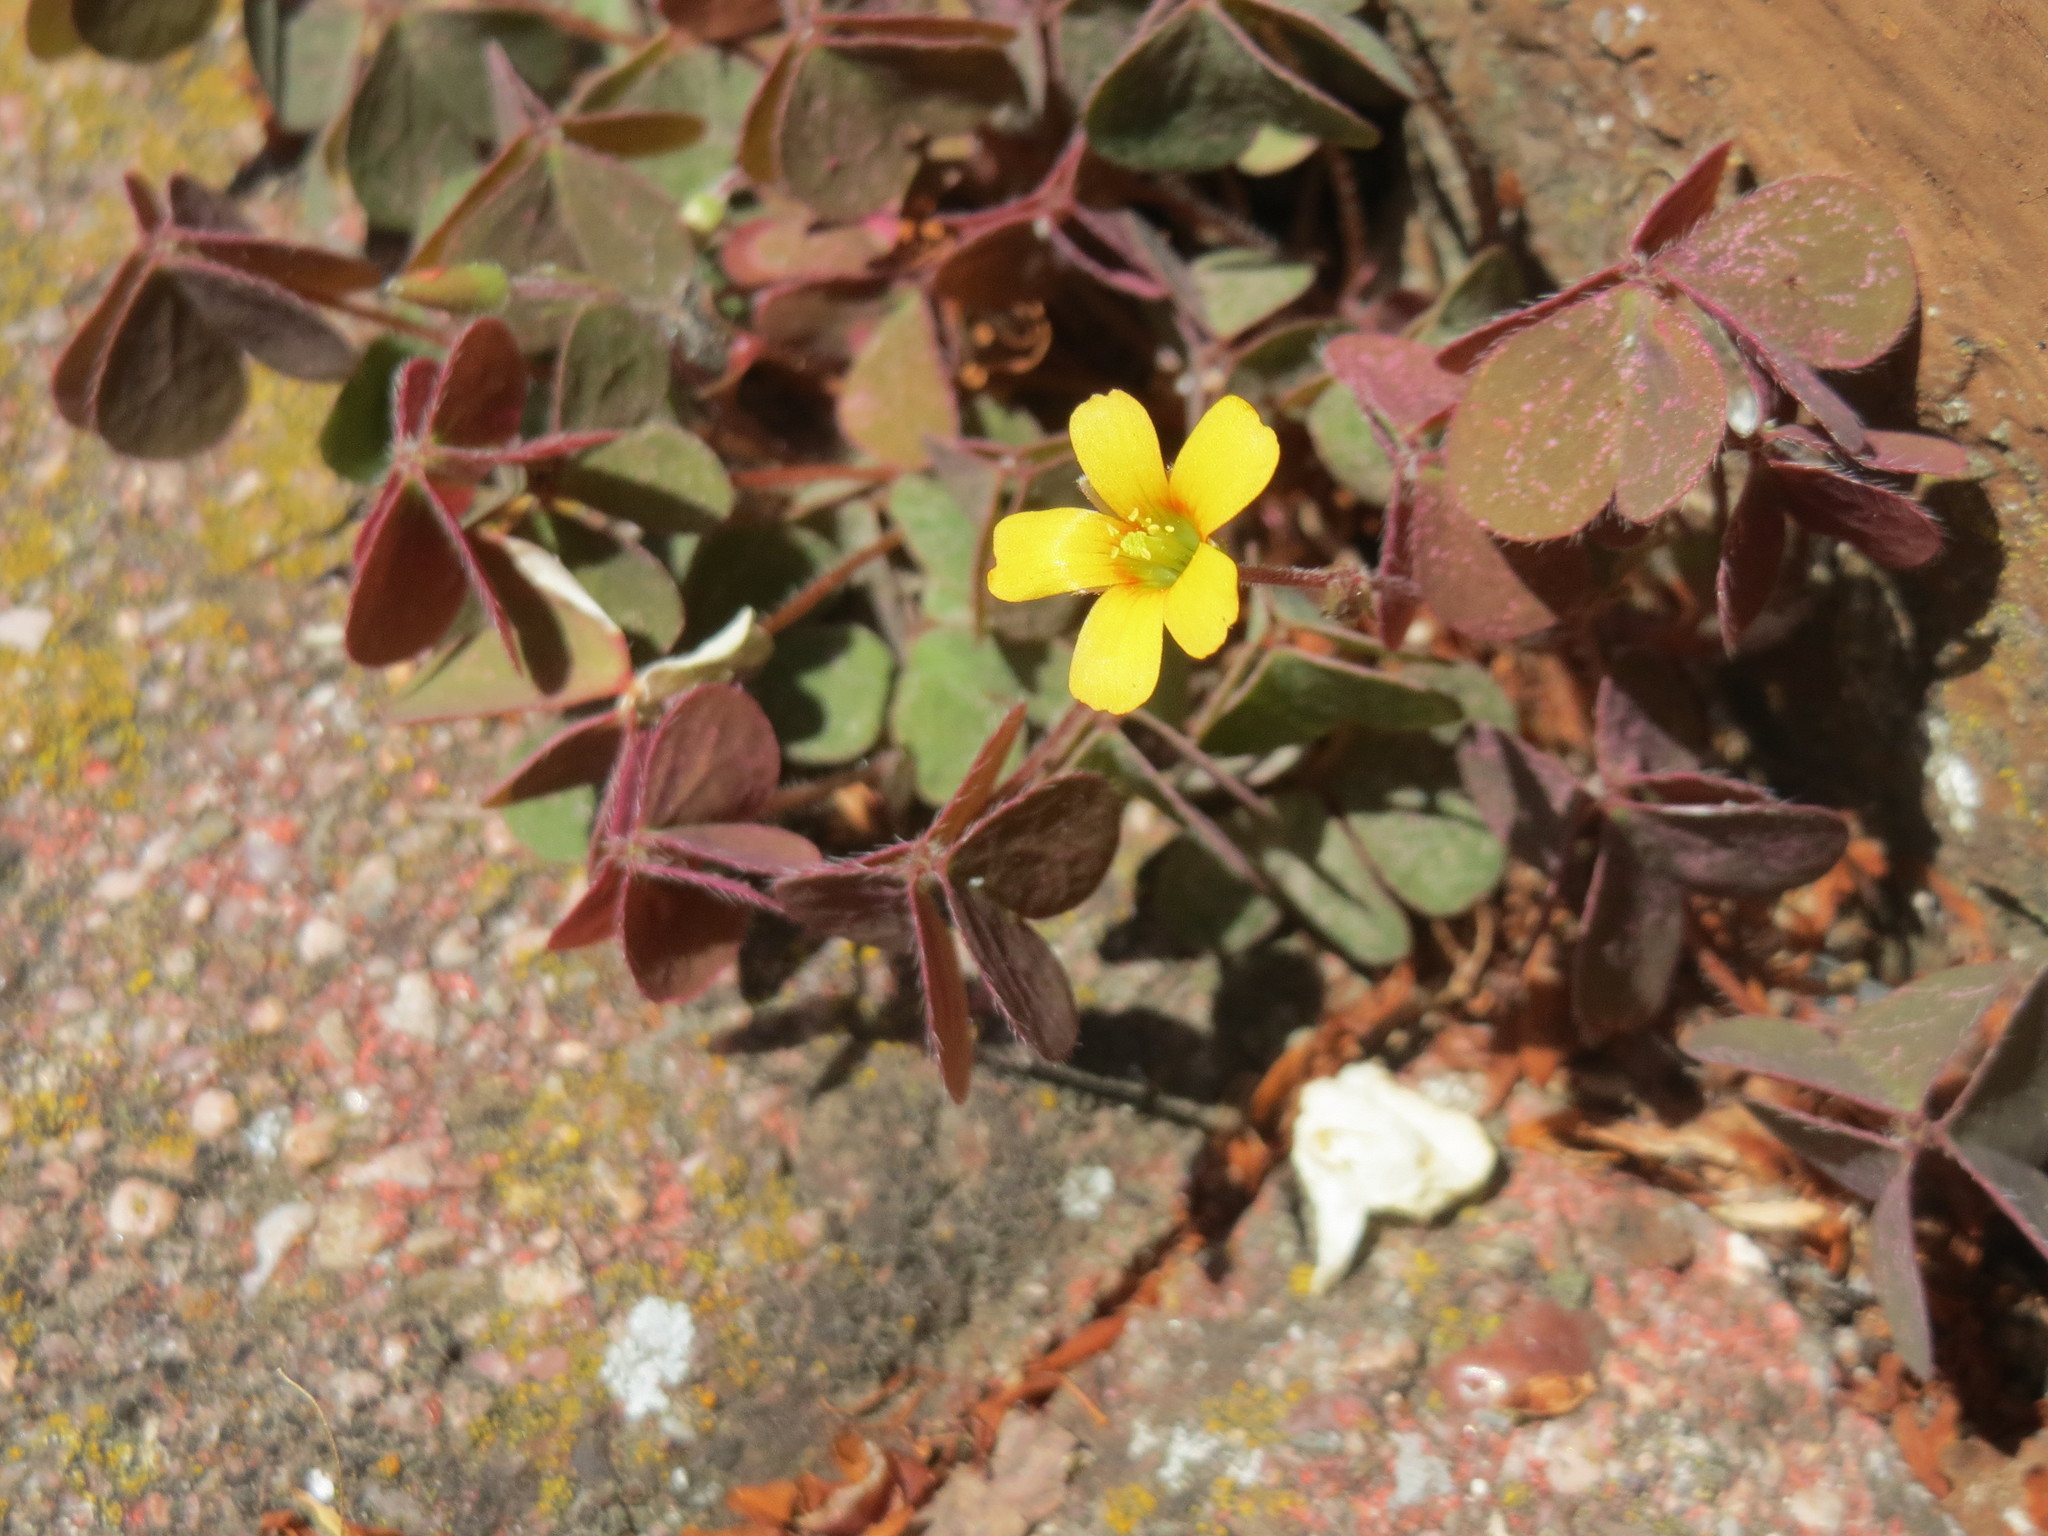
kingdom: Plantae
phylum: Tracheophyta
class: Magnoliopsida
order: Oxalidales
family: Oxalidaceae
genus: Oxalis
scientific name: Oxalis corniculata
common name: Procumbent yellow-sorrel
